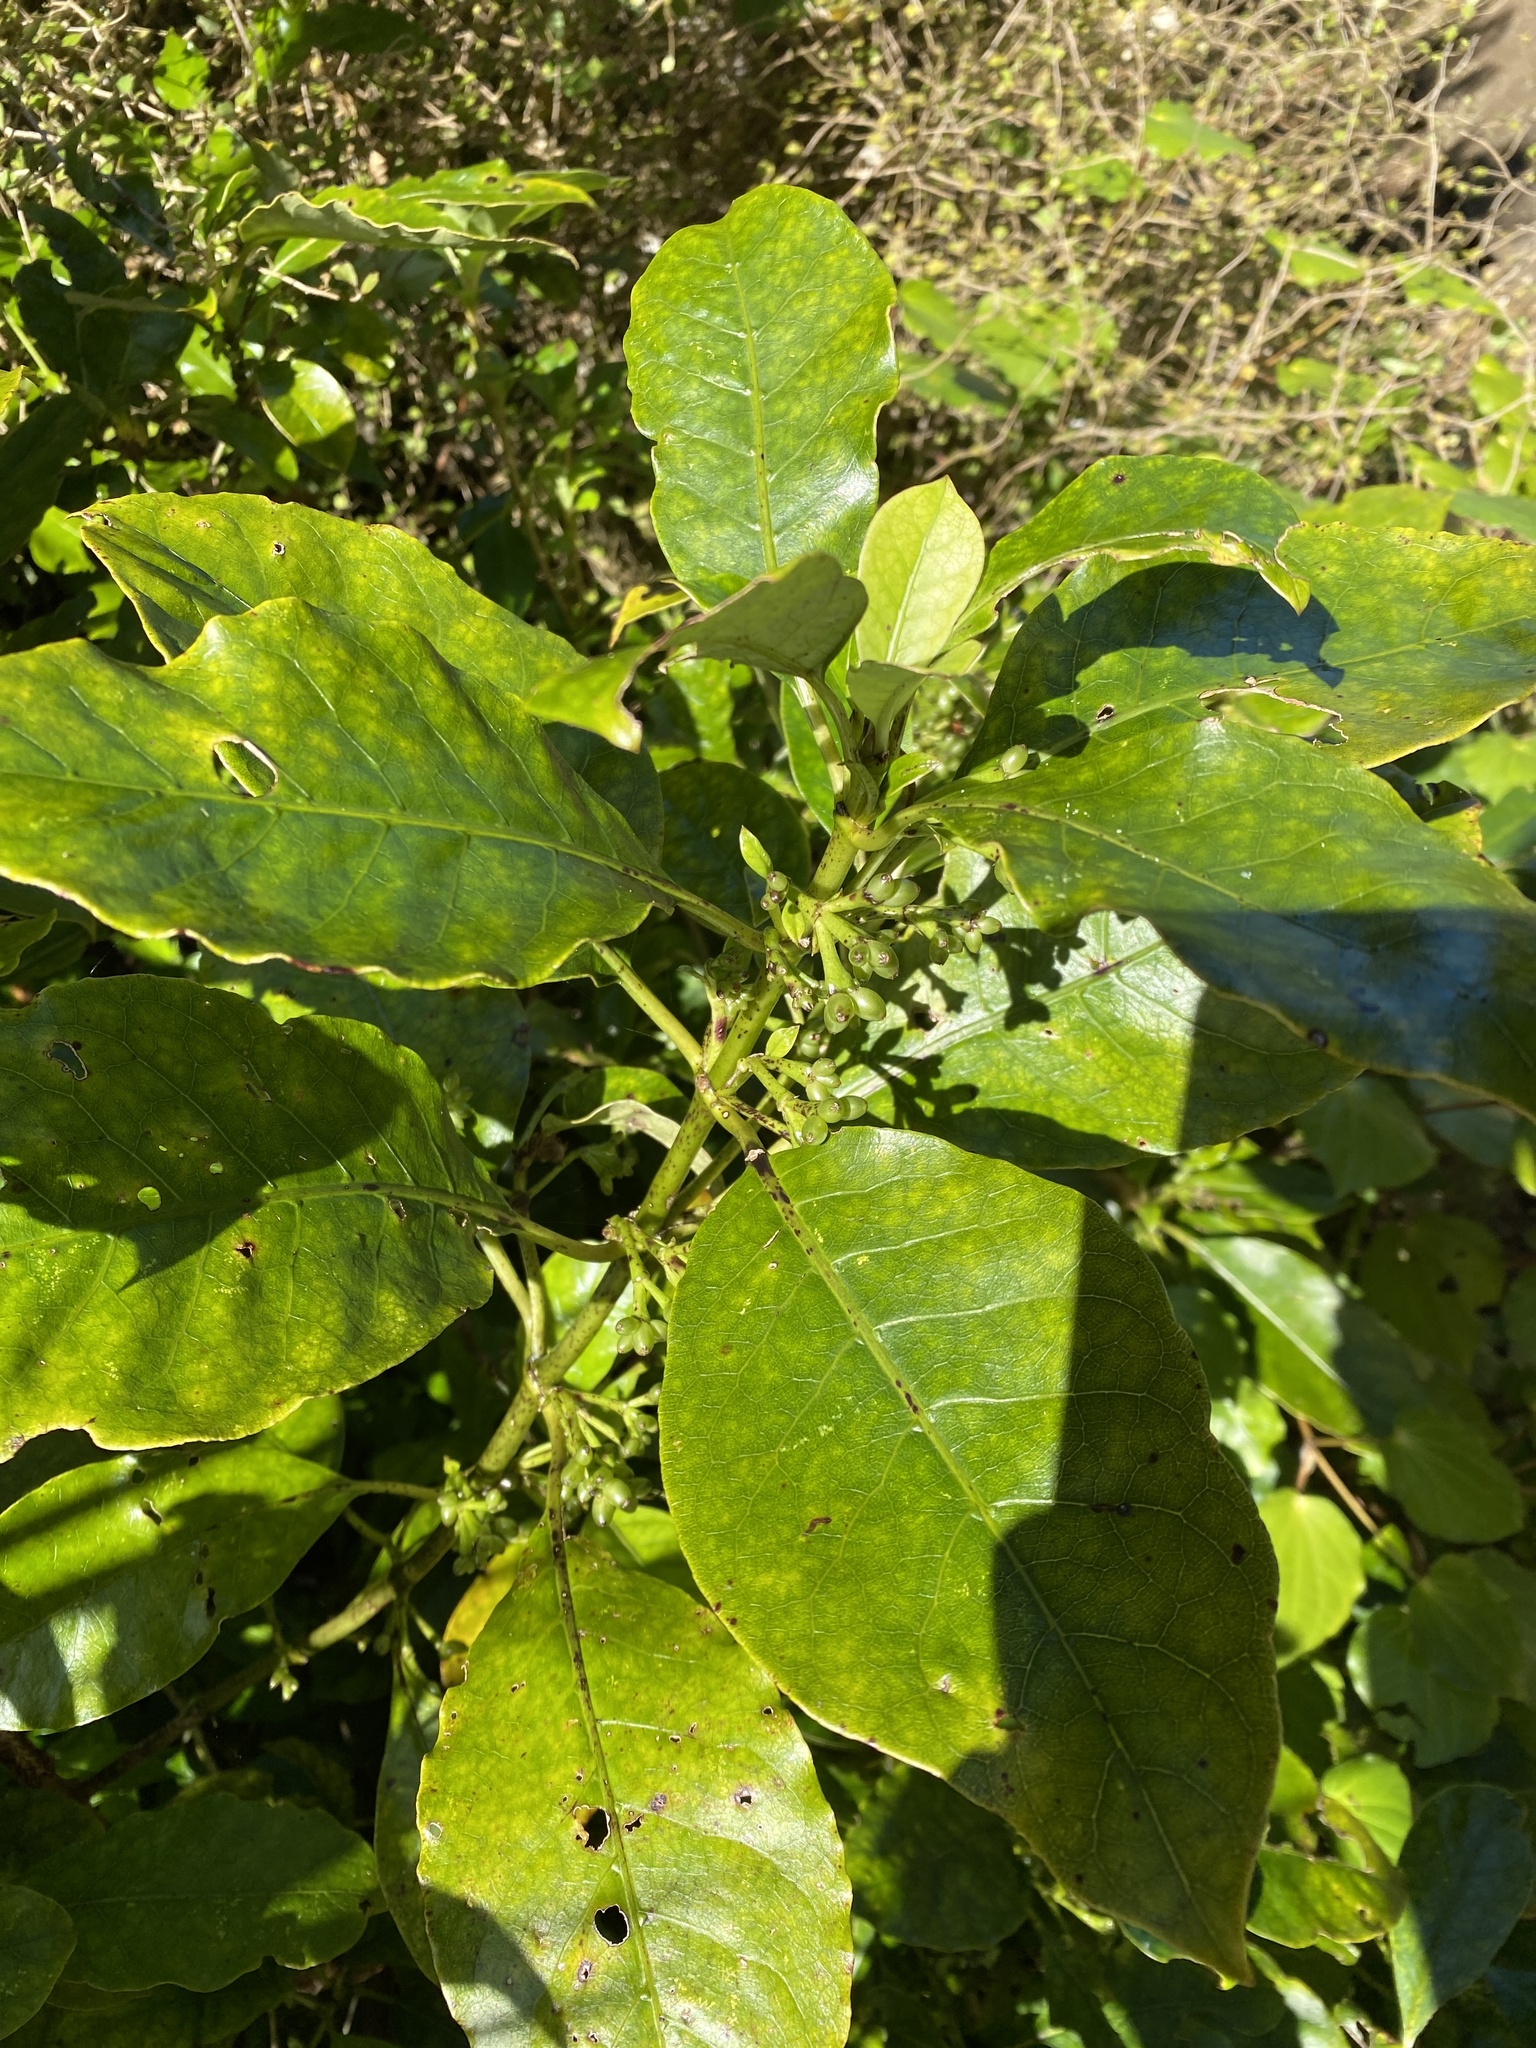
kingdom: Plantae
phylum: Tracheophyta
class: Magnoliopsida
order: Gentianales
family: Rubiaceae
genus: Coprosma
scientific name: Coprosma autumnalis
